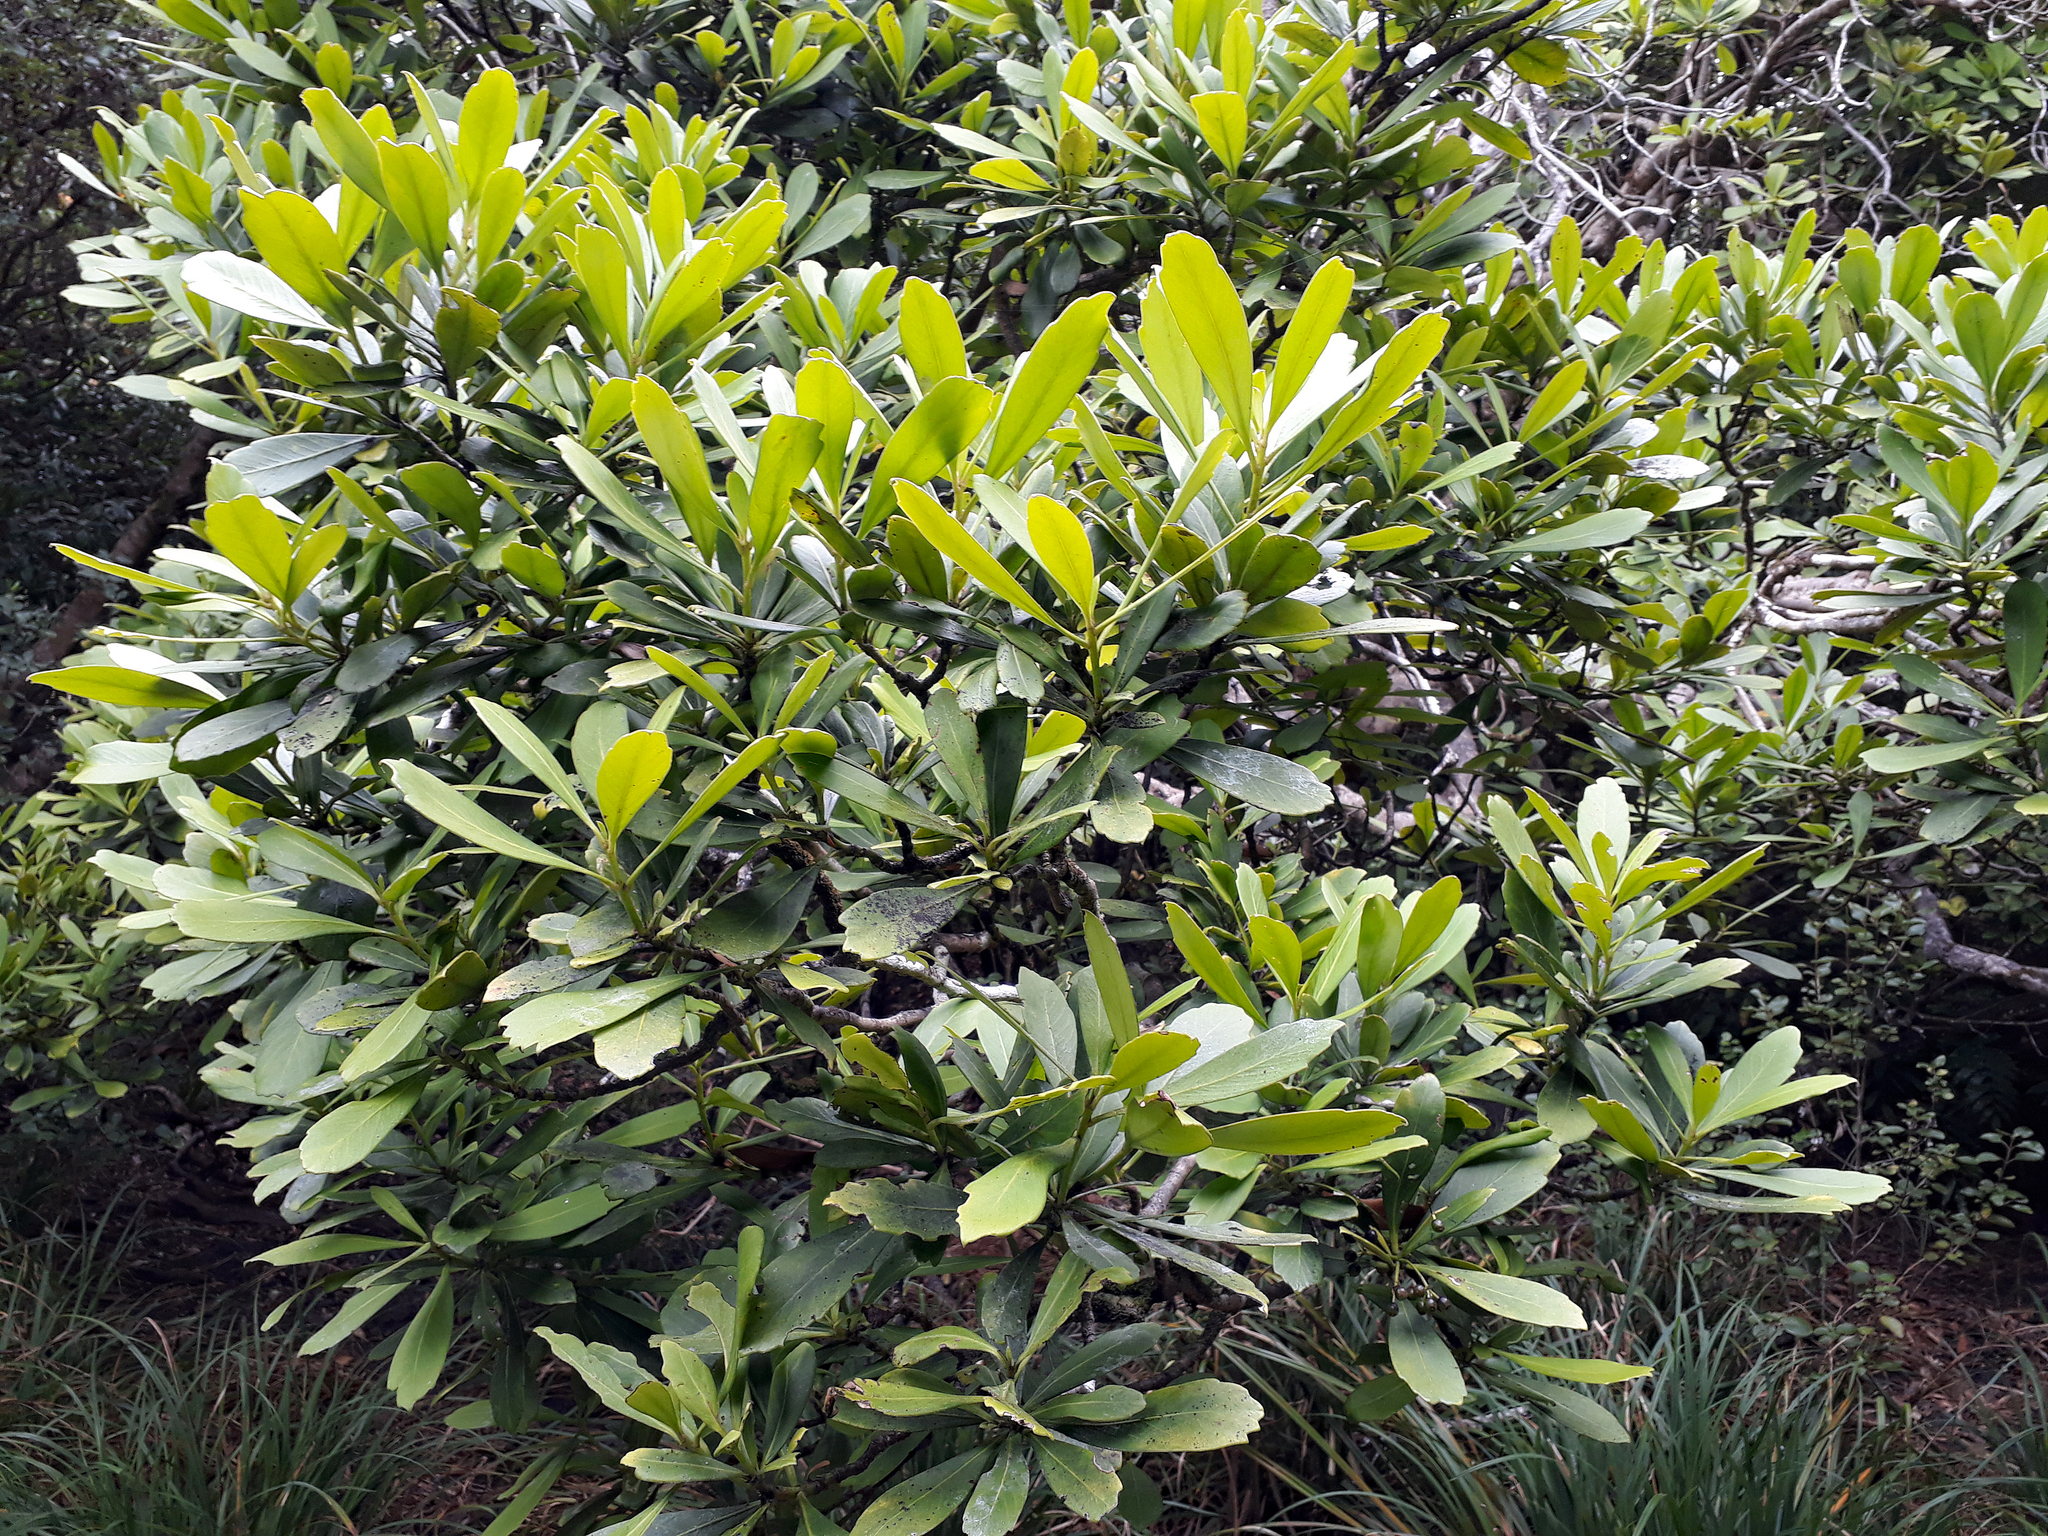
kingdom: Plantae
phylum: Tracheophyta
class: Magnoliopsida
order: Apiales
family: Araliaceae
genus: Pseudopanax
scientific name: Pseudopanax chathamicus
